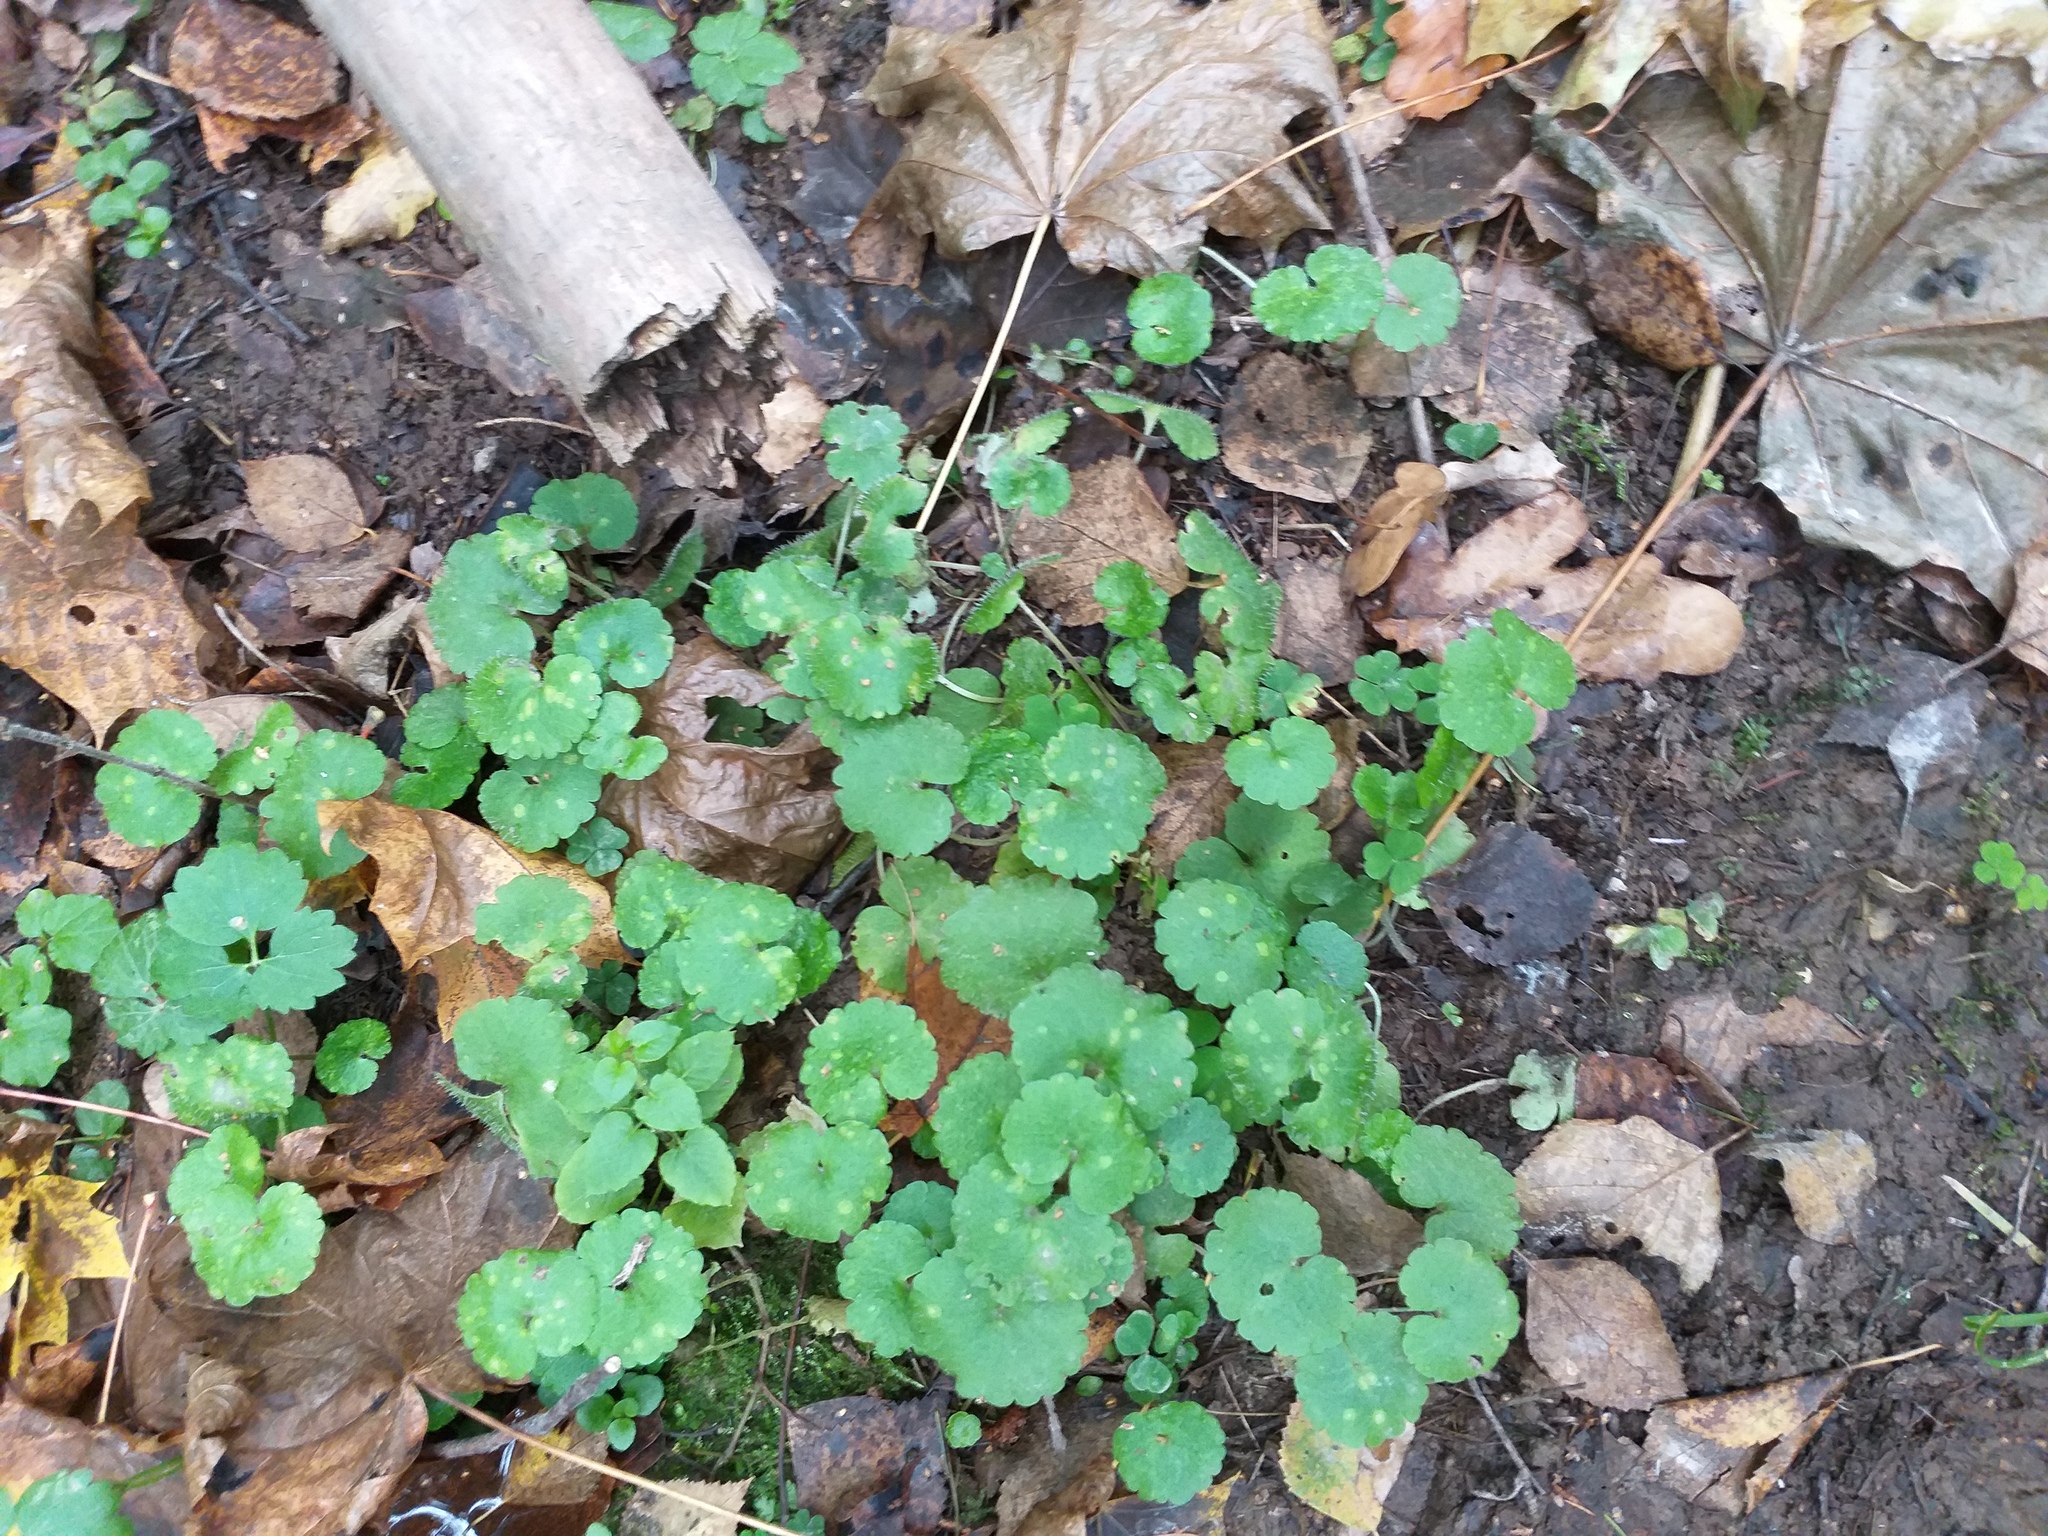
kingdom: Plantae
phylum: Tracheophyta
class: Magnoliopsida
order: Saxifragales
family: Saxifragaceae
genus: Chrysosplenium
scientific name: Chrysosplenium alternifolium
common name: Alternate-leaved golden-saxifrage
